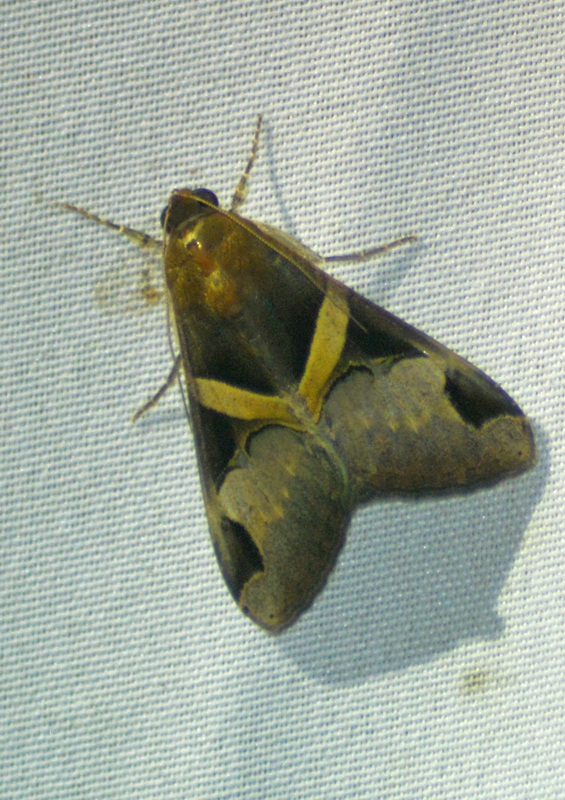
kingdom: Animalia
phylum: Arthropoda
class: Insecta
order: Lepidoptera
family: Erebidae
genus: Melipotis
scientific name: Melipotis fasciolaris
